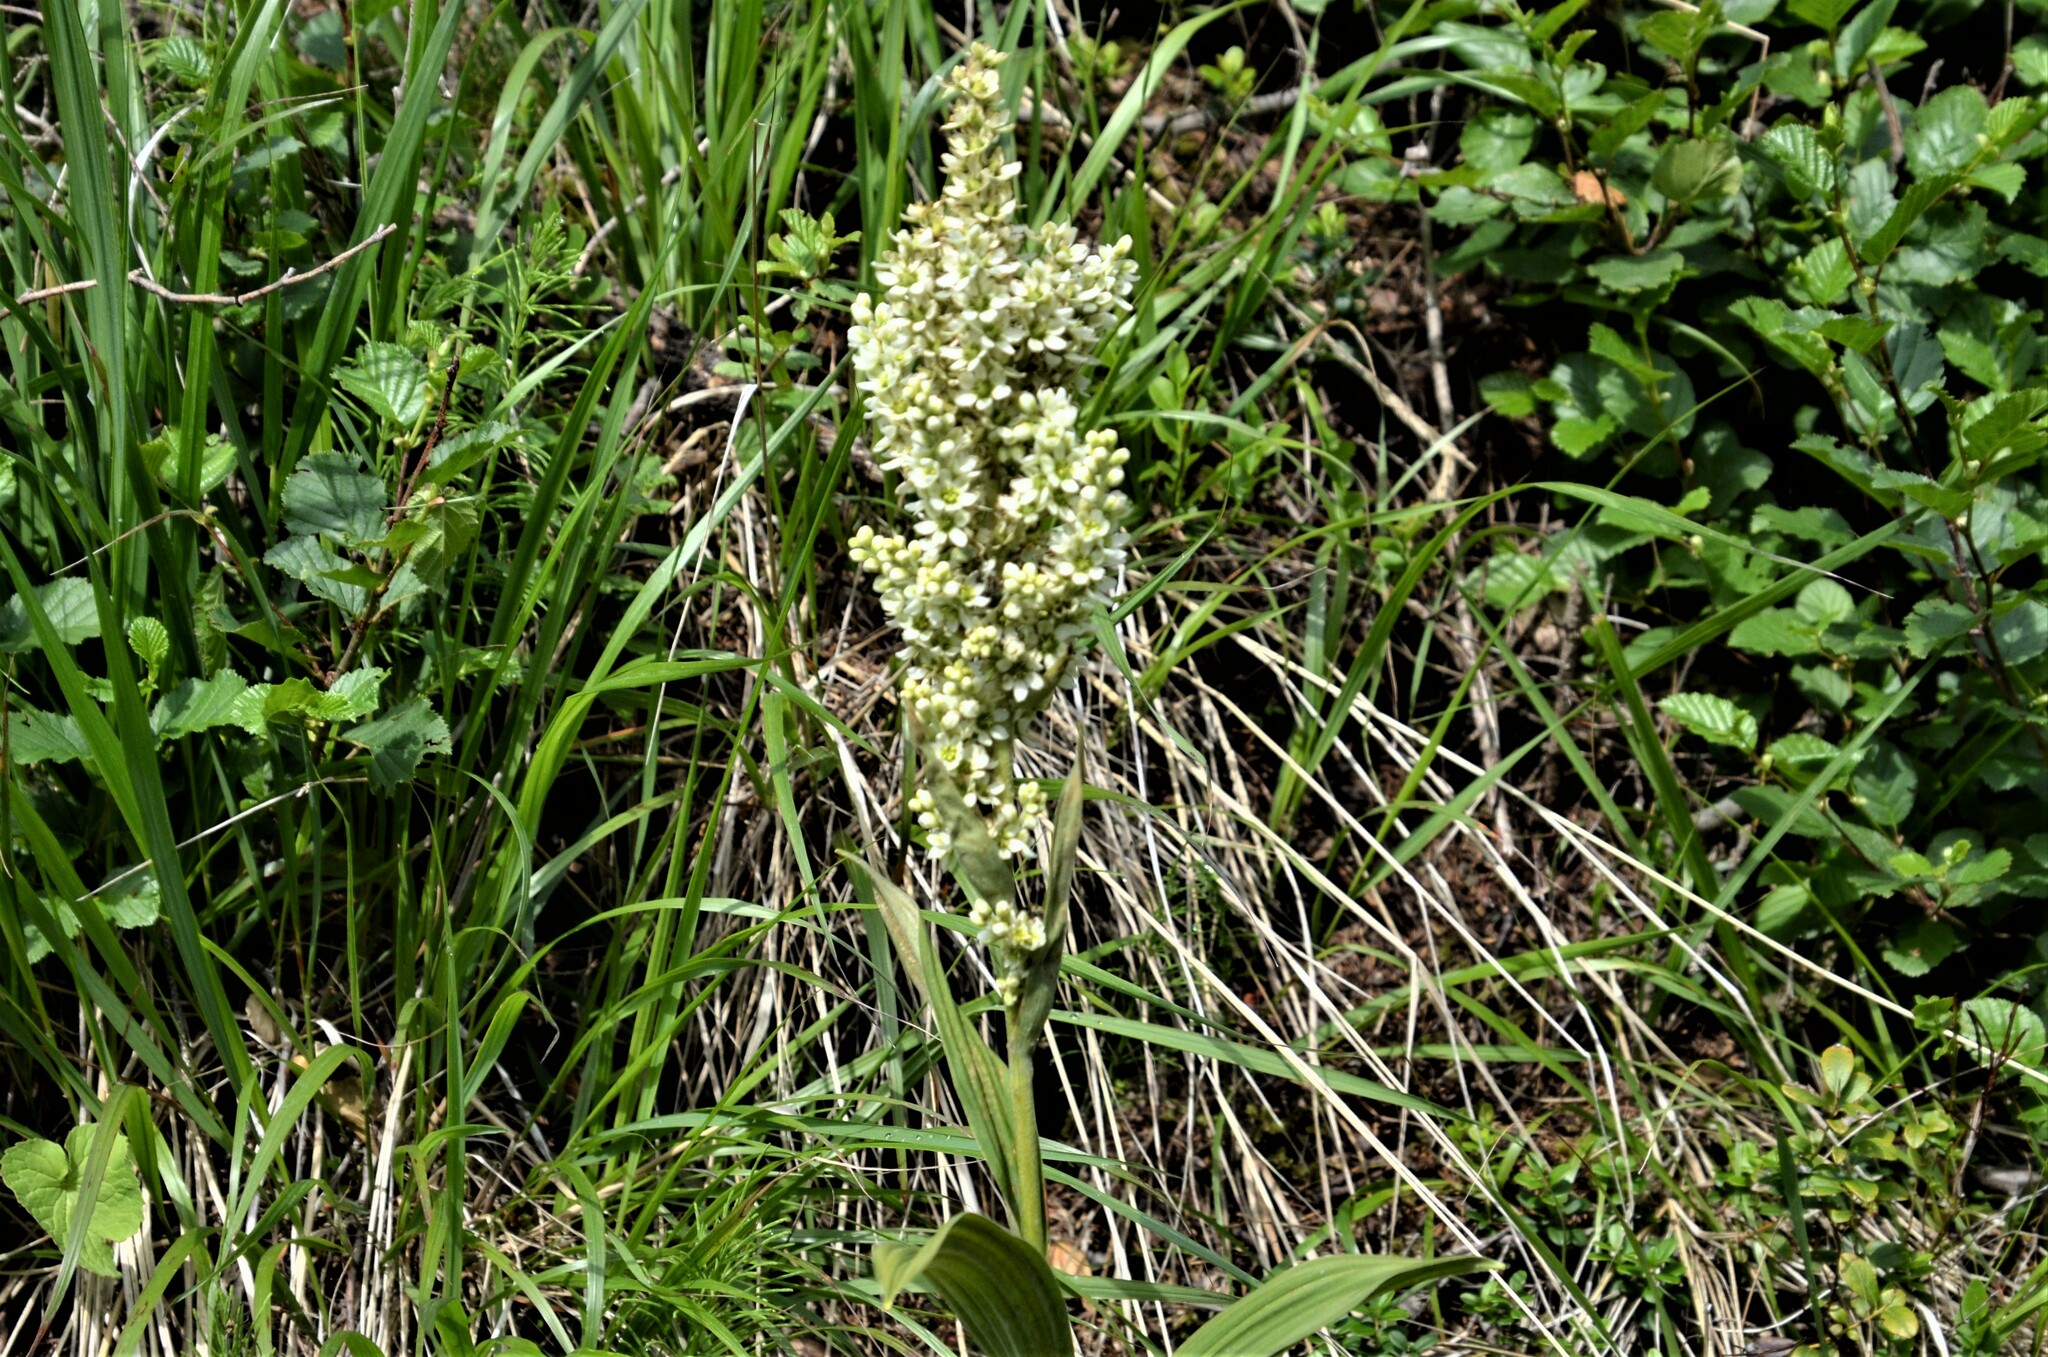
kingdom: Plantae
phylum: Tracheophyta
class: Liliopsida
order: Liliales
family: Melanthiaceae
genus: Veratrum
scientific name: Veratrum album
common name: White veratrum
